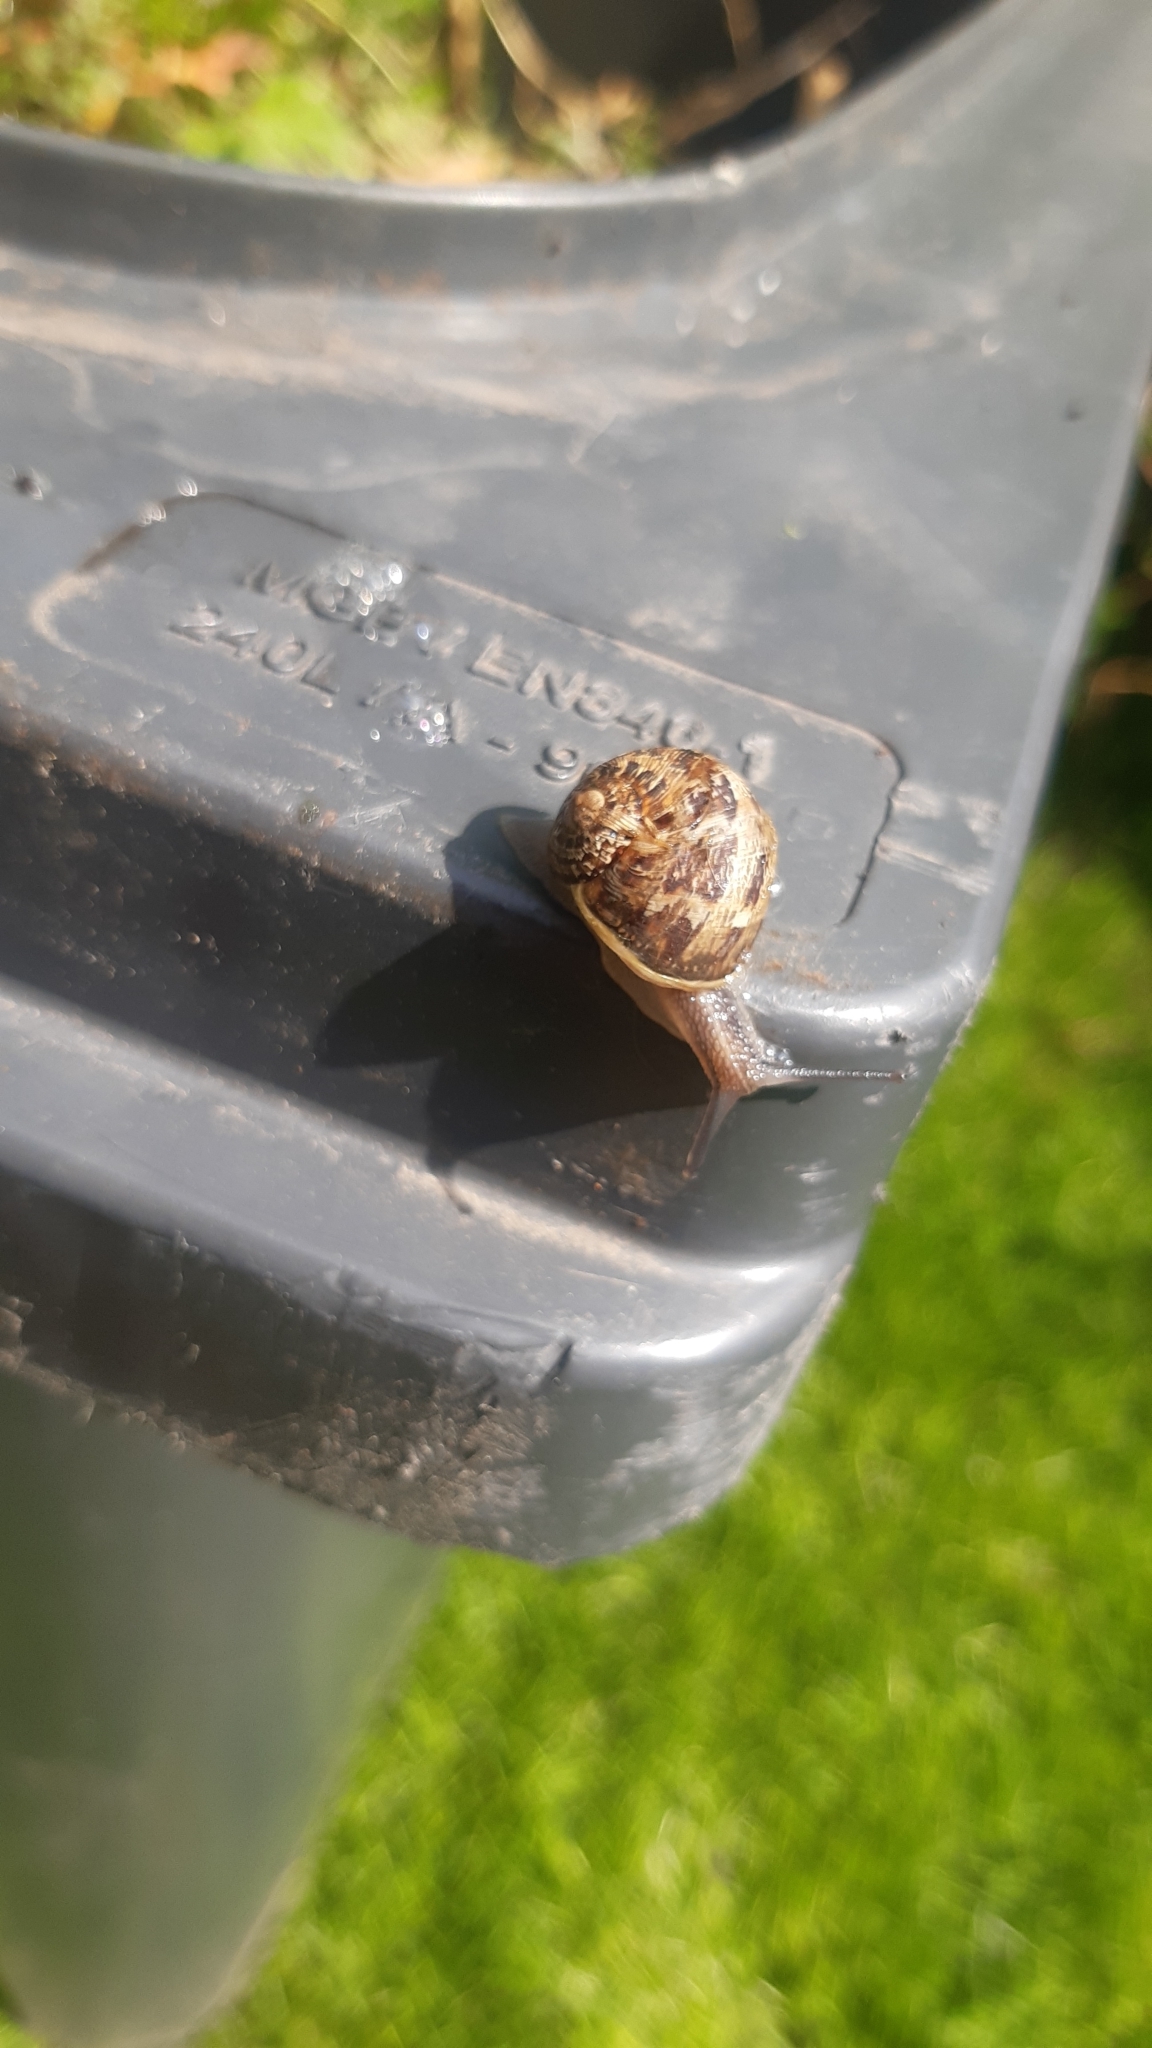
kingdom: Animalia
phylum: Mollusca
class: Gastropoda
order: Stylommatophora
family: Helicidae
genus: Cornu
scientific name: Cornu aspersum
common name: Brown garden snail
